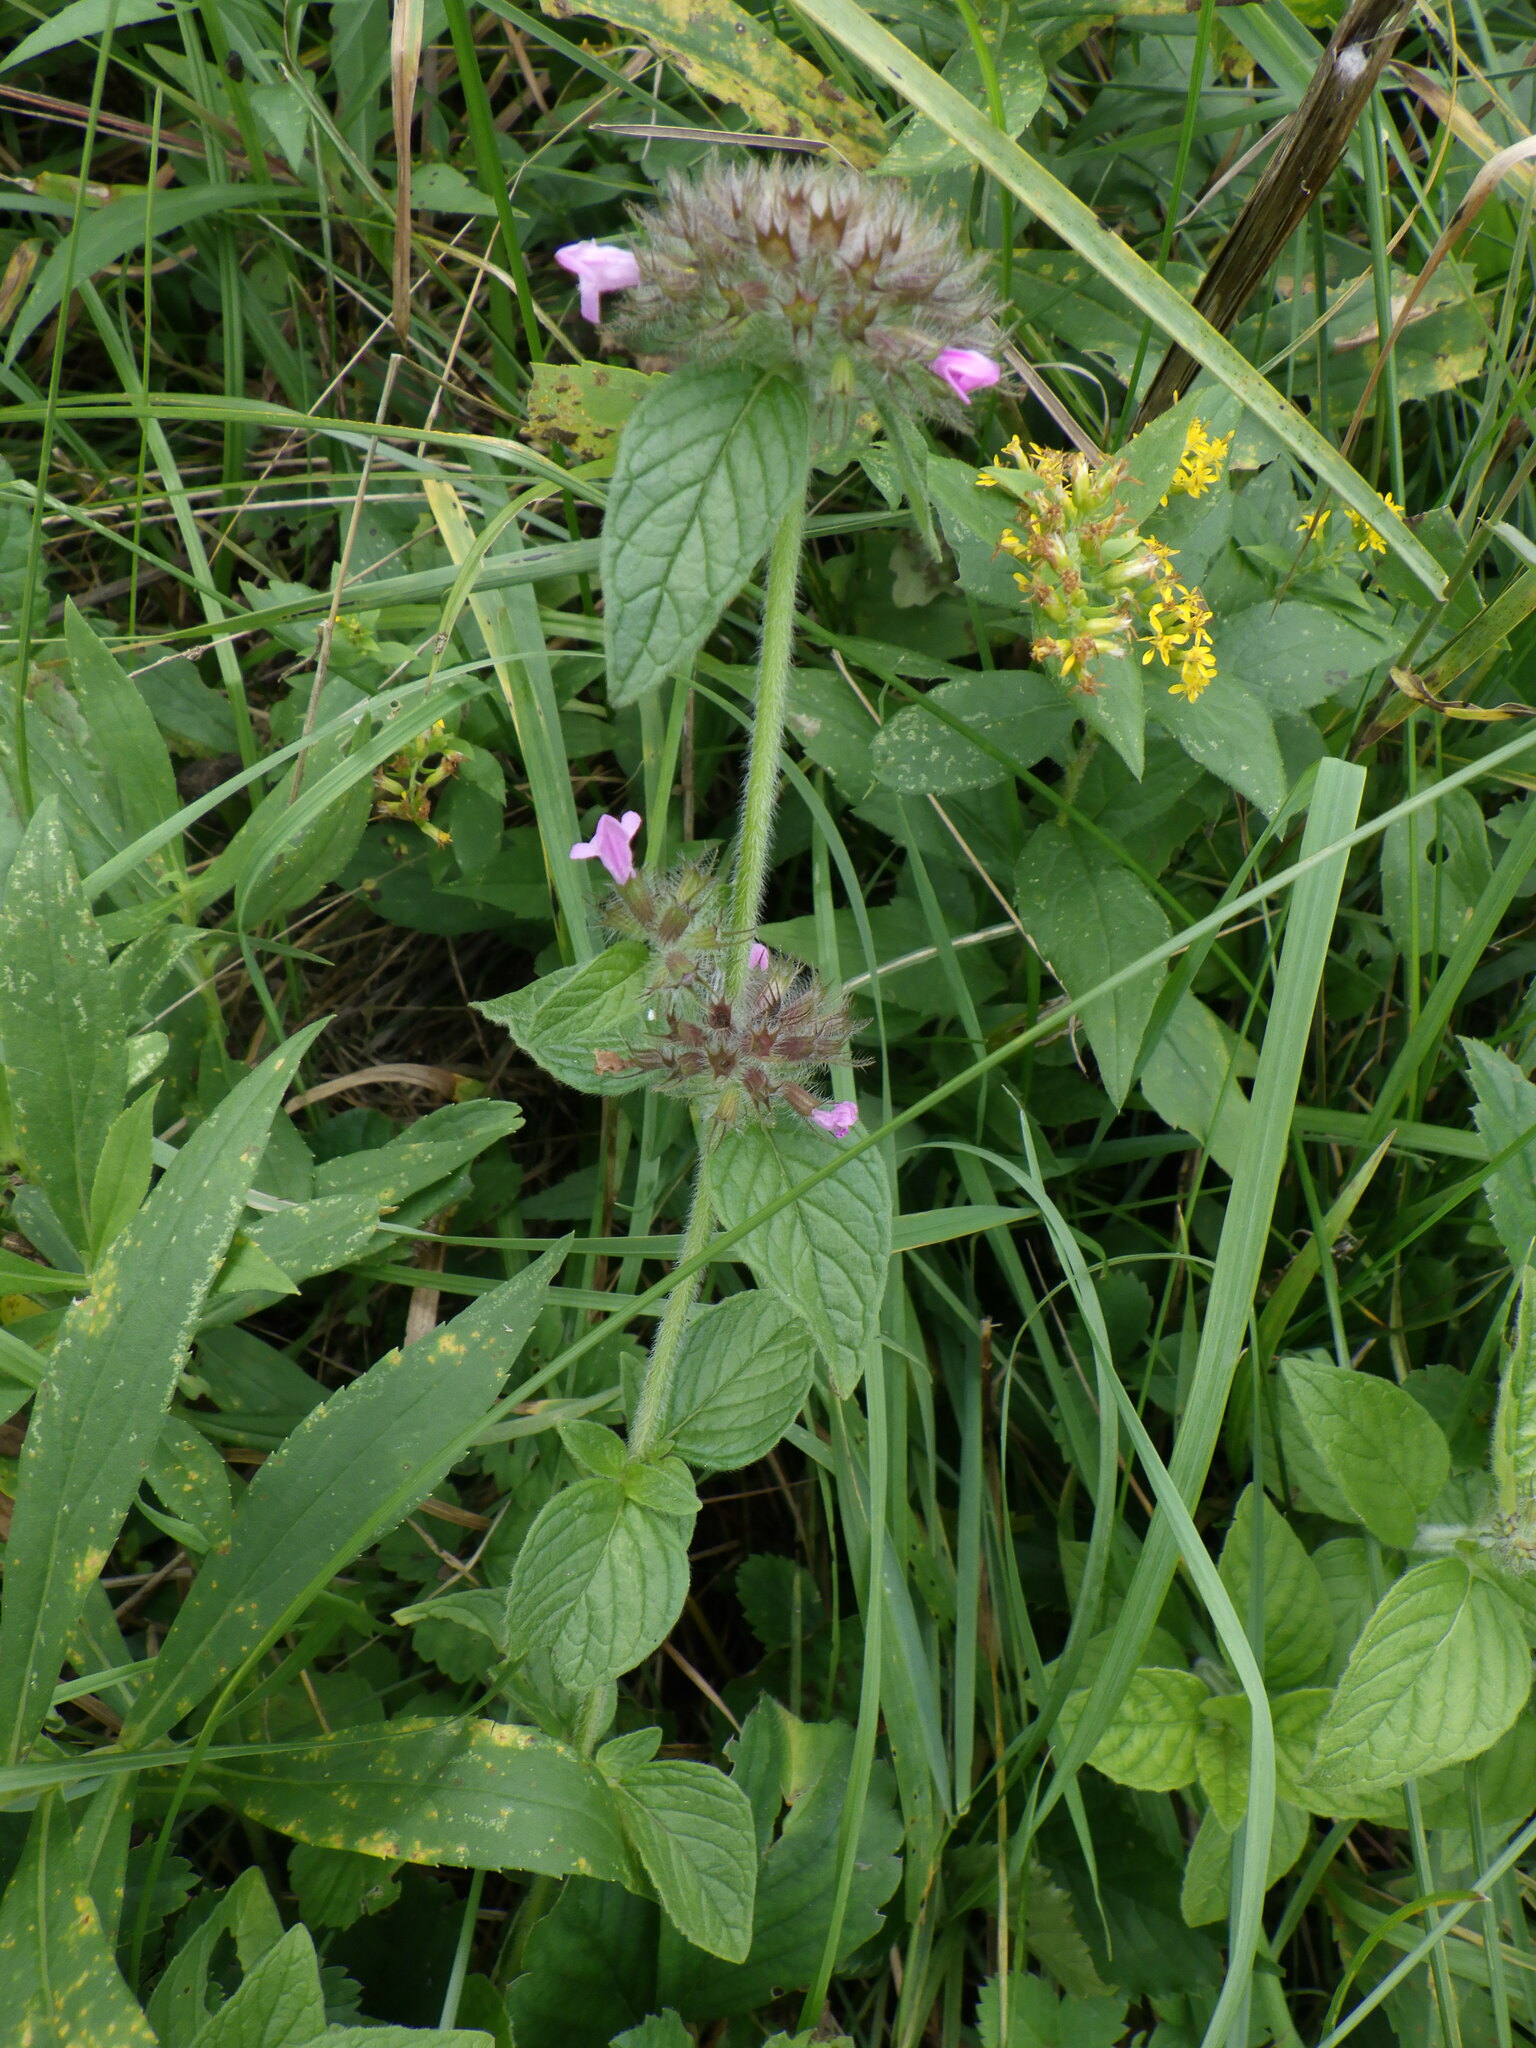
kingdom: Plantae
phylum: Tracheophyta
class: Magnoliopsida
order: Lamiales
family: Lamiaceae
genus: Clinopodium
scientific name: Clinopodium vulgare
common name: Wild basil
